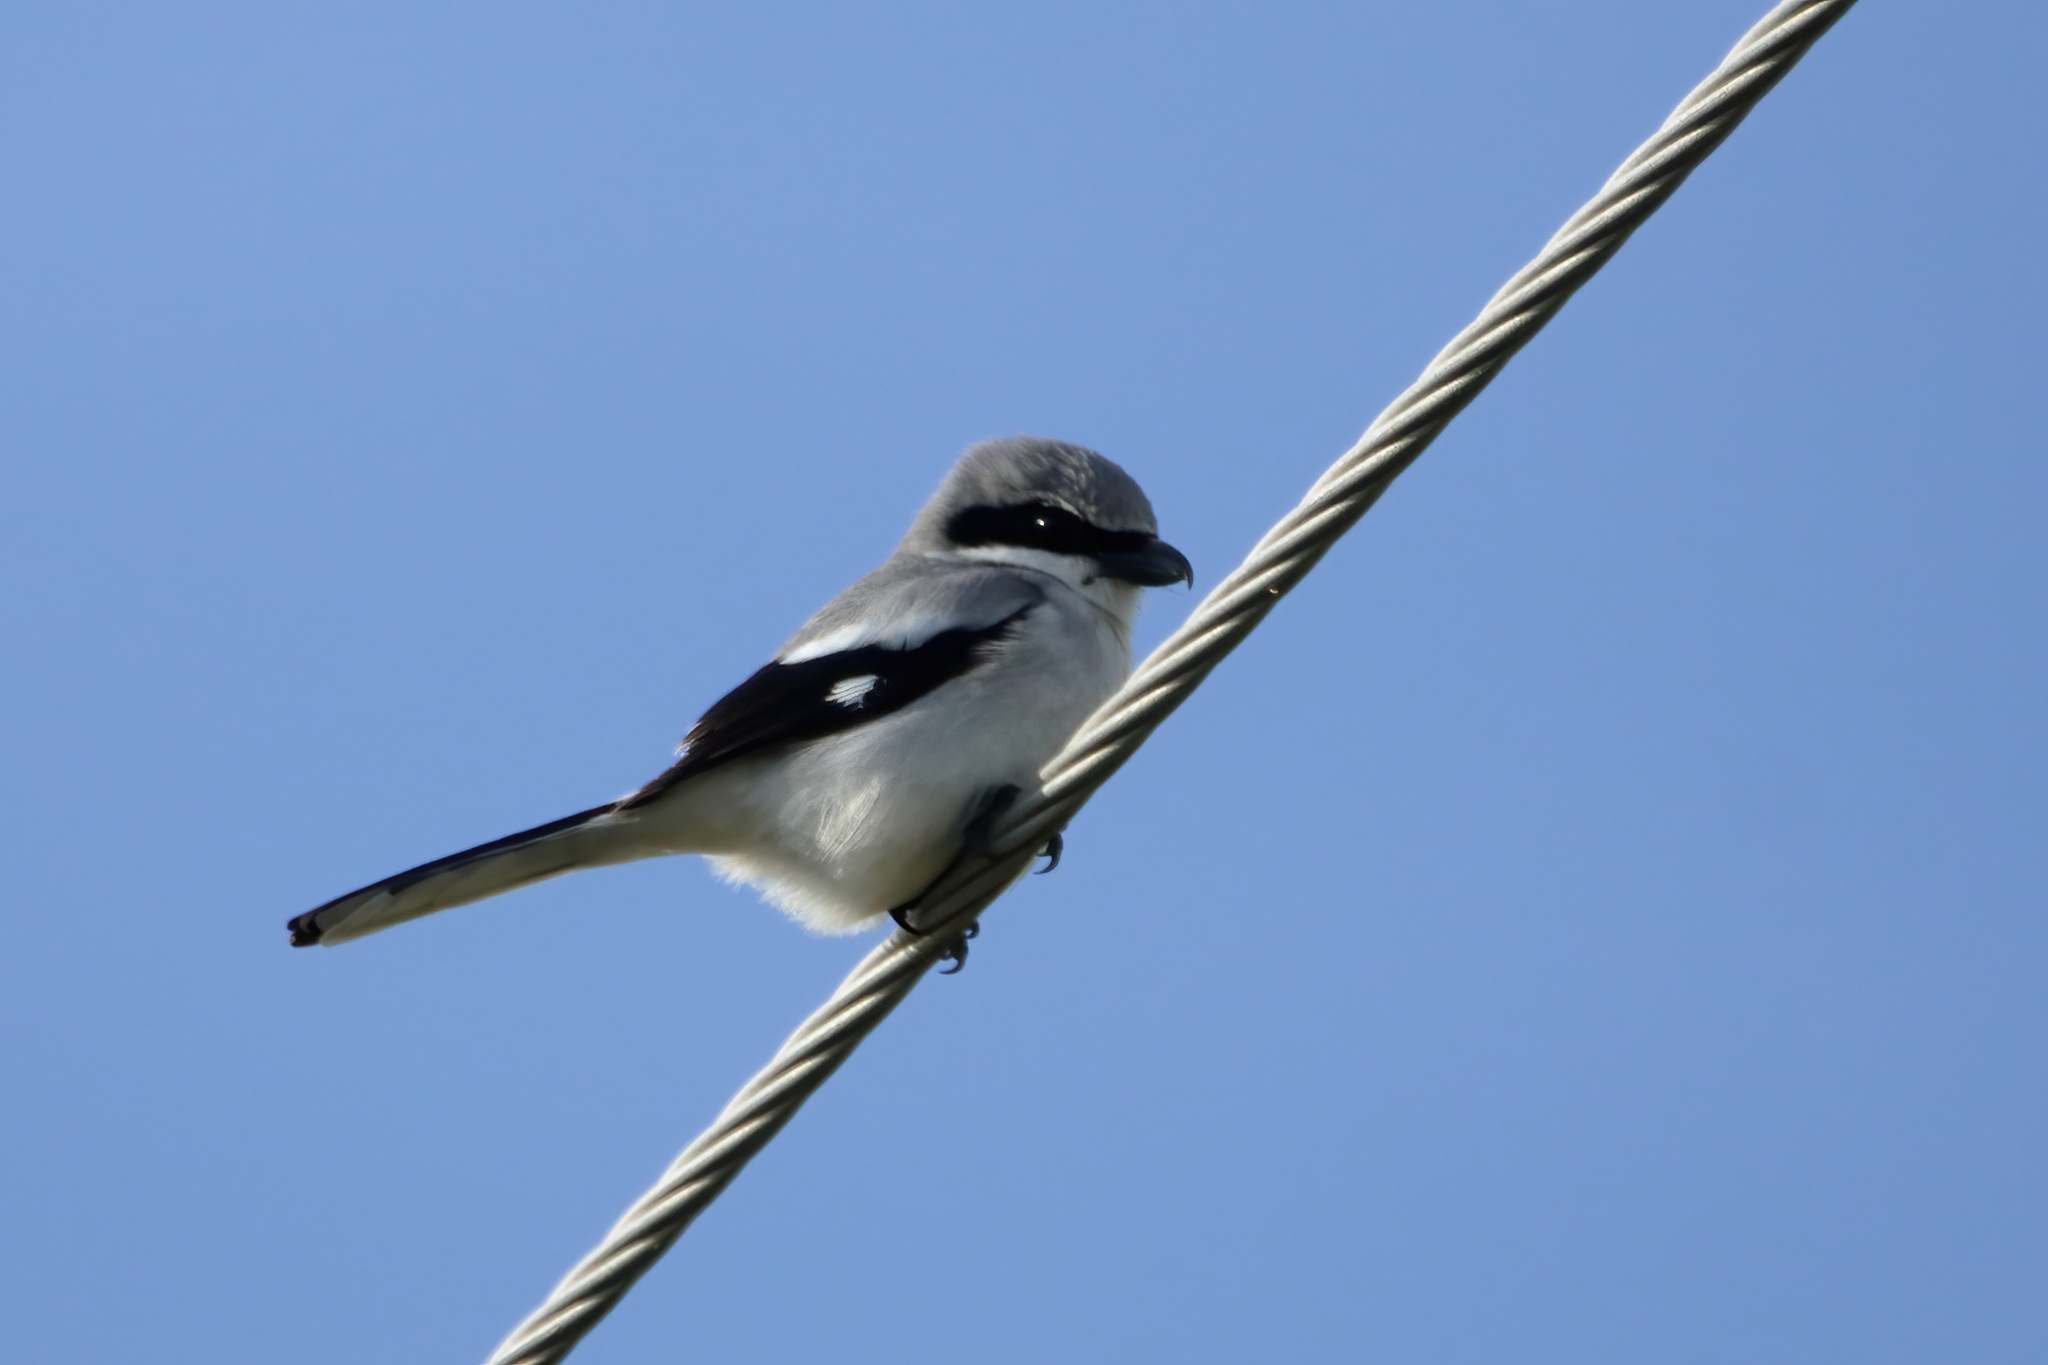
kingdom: Animalia
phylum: Chordata
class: Aves
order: Passeriformes
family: Laniidae
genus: Lanius
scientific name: Lanius ludovicianus
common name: Loggerhead shrike
